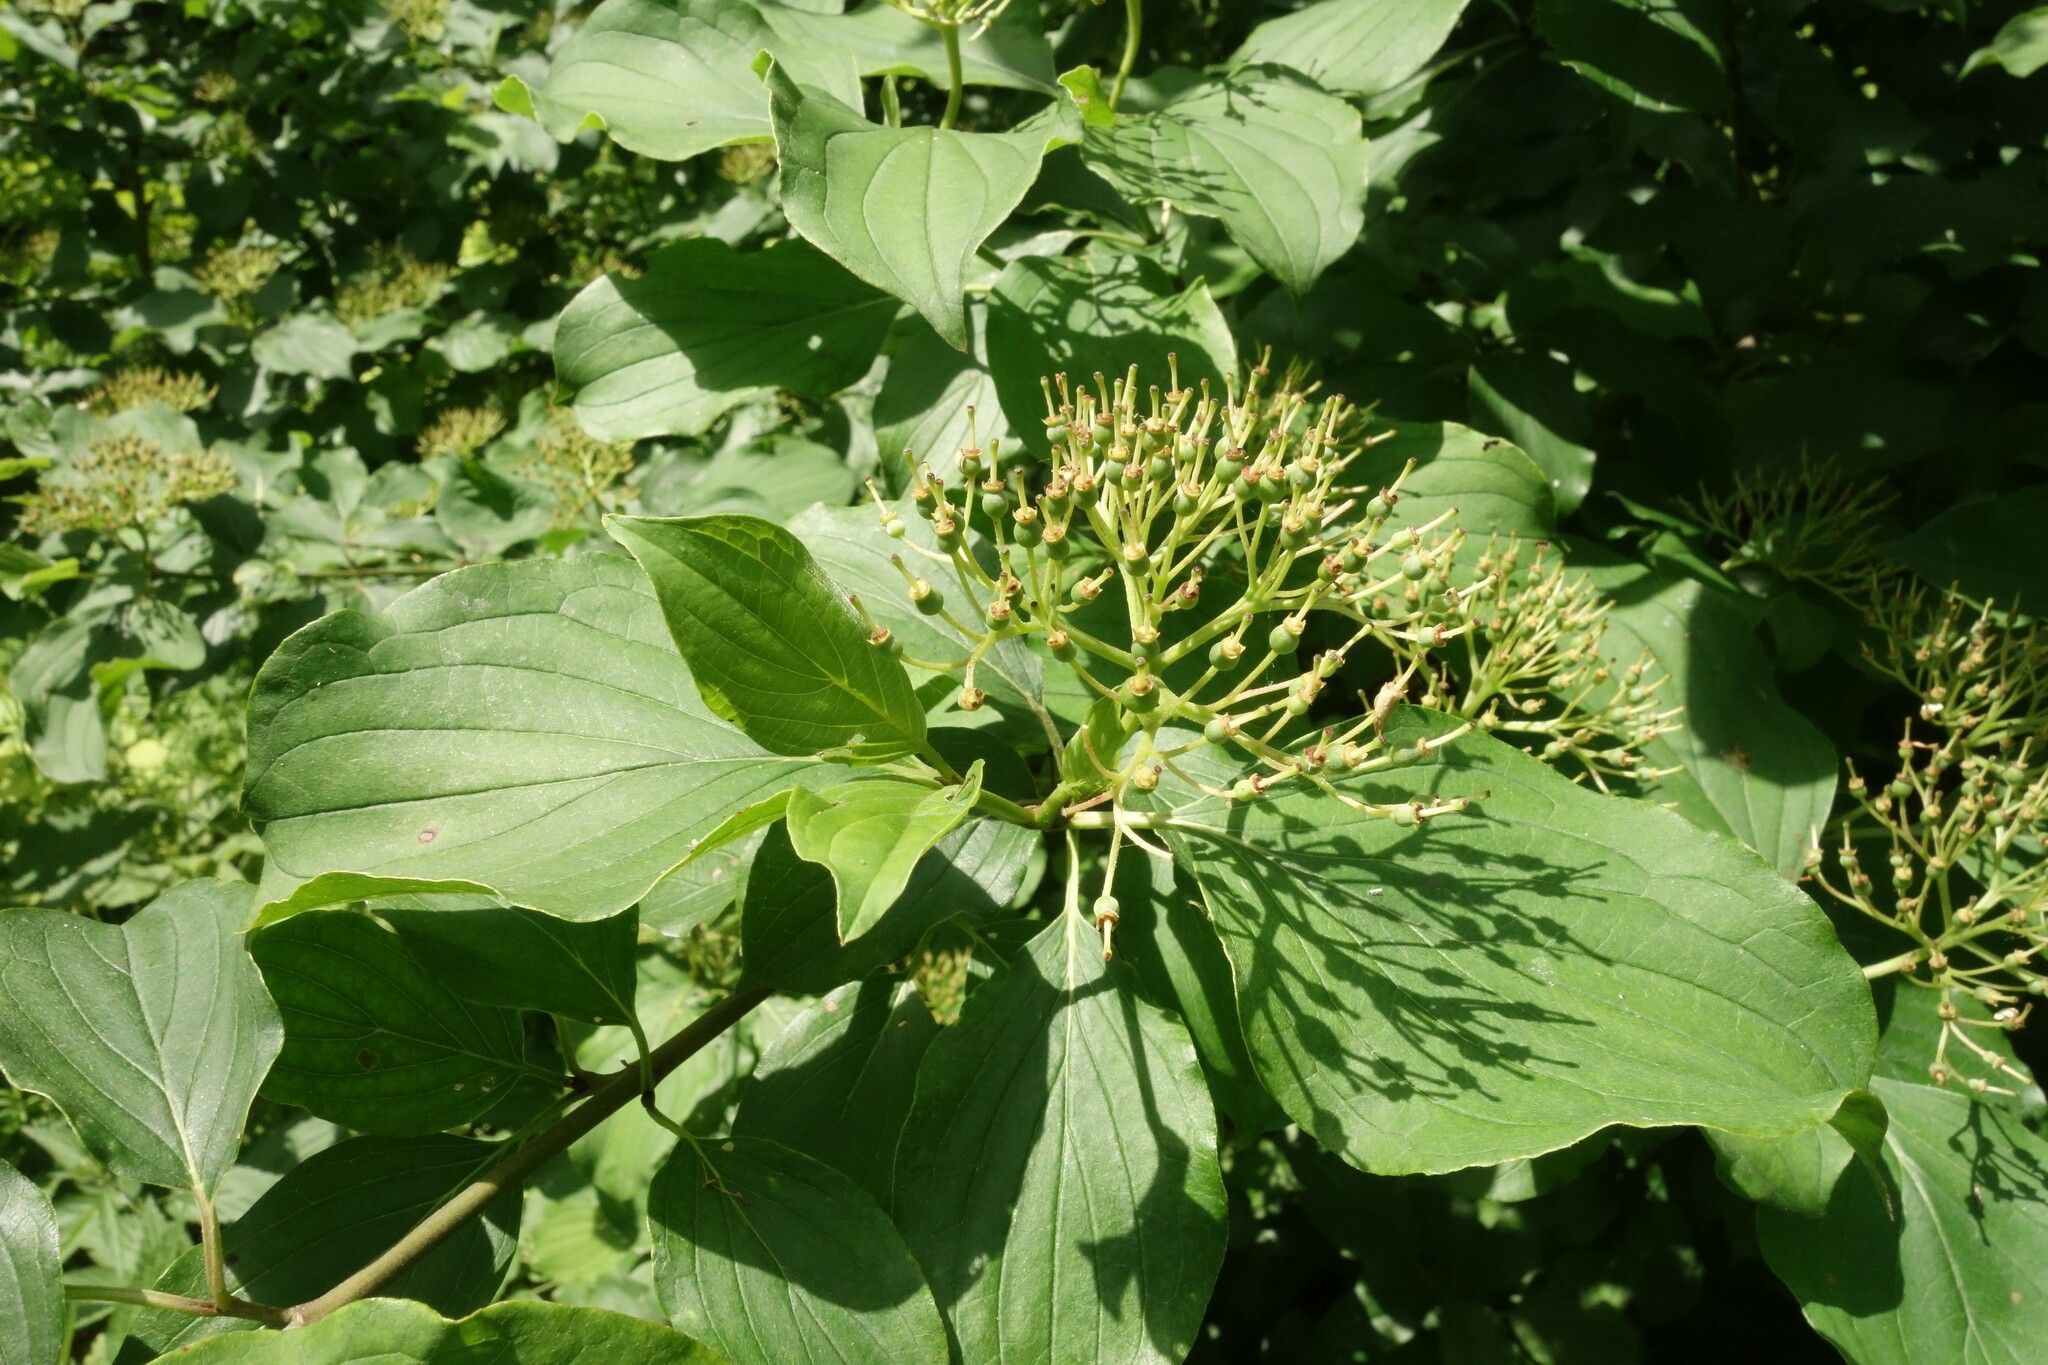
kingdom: Plantae
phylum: Tracheophyta
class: Magnoliopsida
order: Cornales
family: Cornaceae
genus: Cornus
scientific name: Cornus sanguinea
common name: Dogwood
